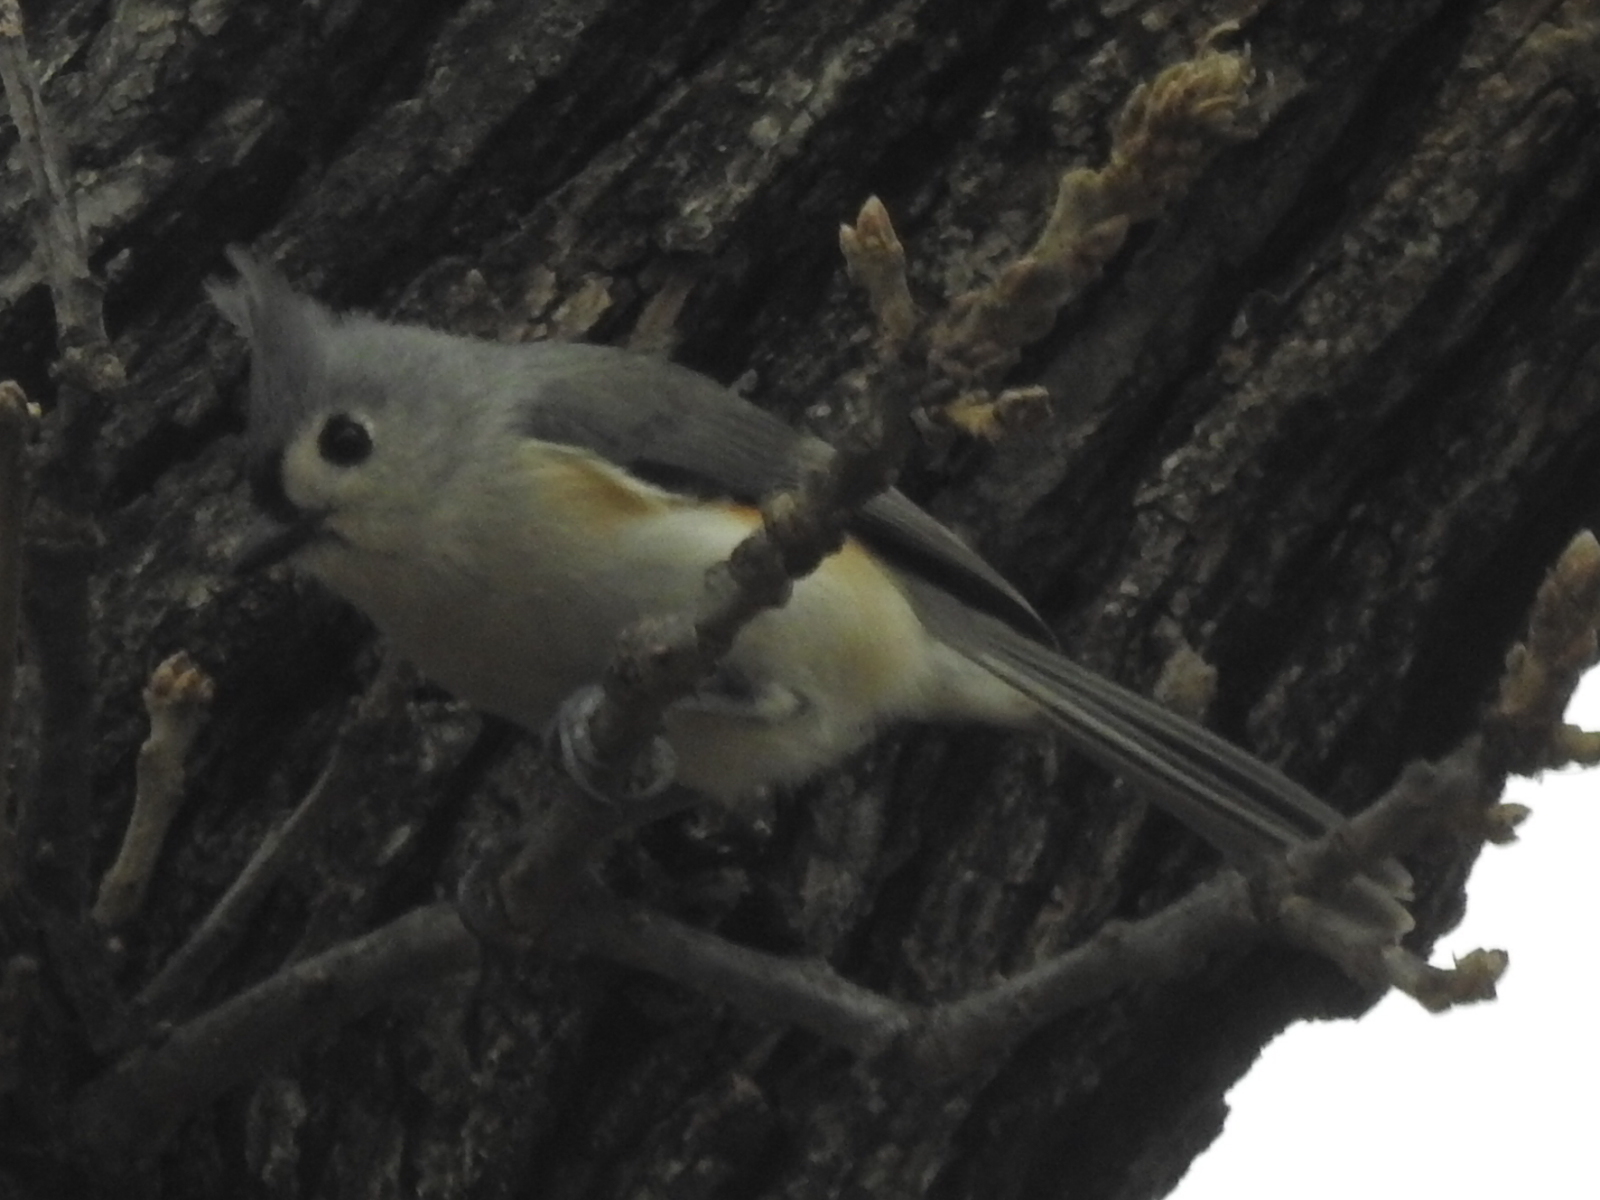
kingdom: Animalia
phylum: Chordata
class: Aves
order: Passeriformes
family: Paridae
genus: Baeolophus
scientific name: Baeolophus bicolor
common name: Tufted titmouse
